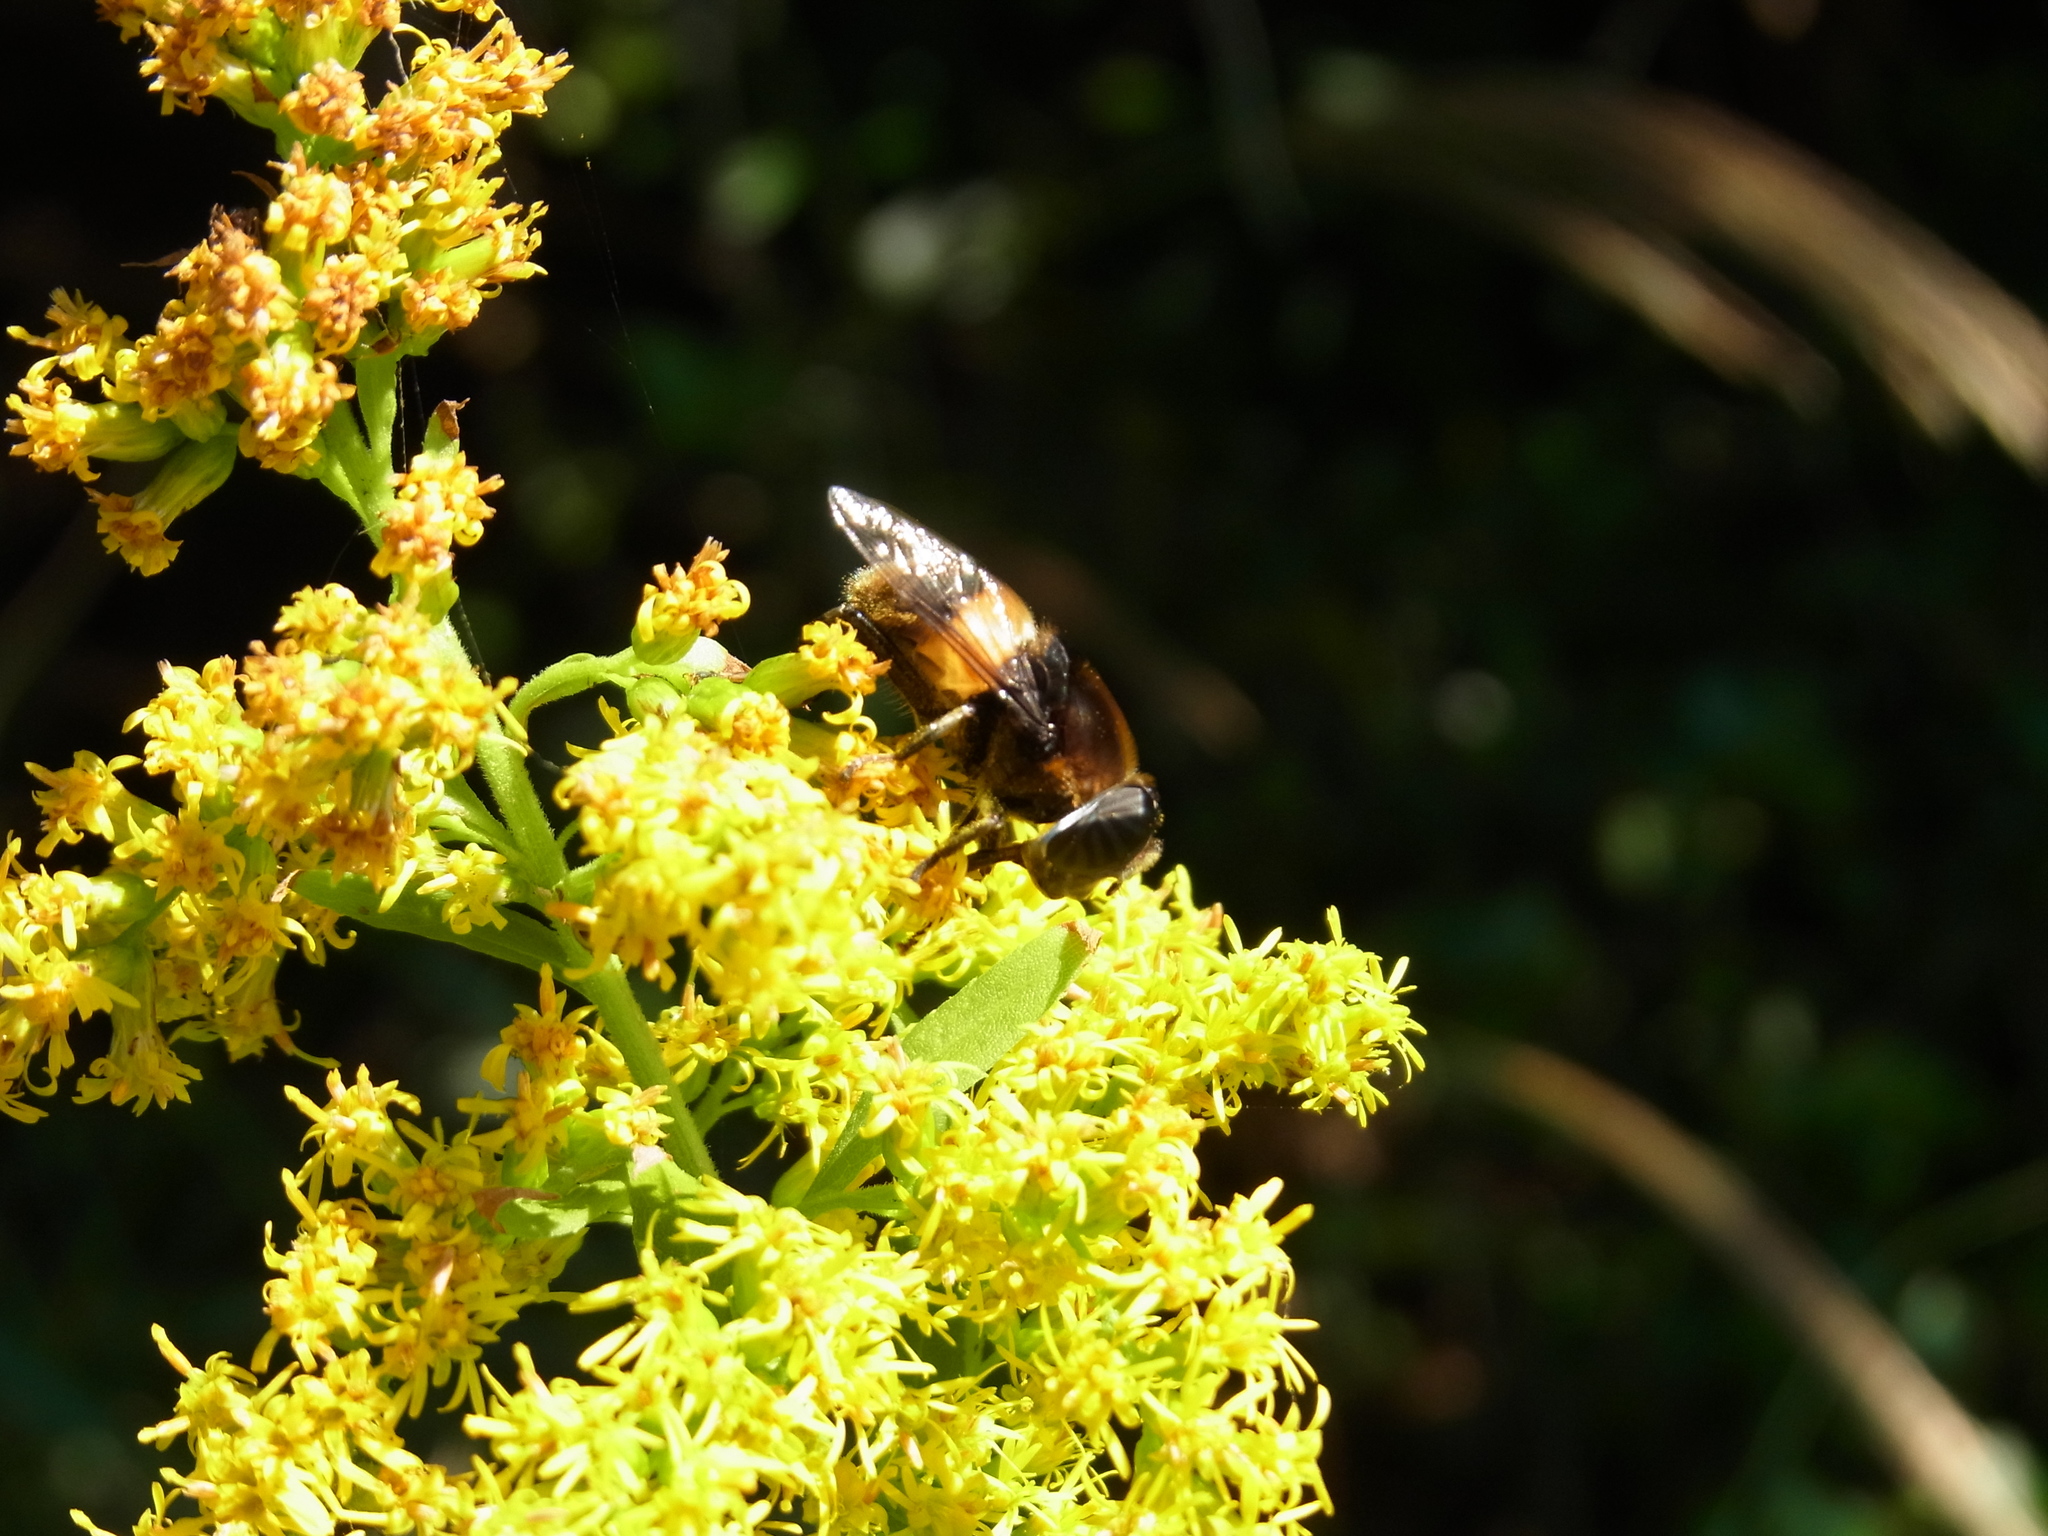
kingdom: Animalia
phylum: Arthropoda
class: Insecta
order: Diptera
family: Syrphidae
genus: Phytomia
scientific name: Phytomia zonata
